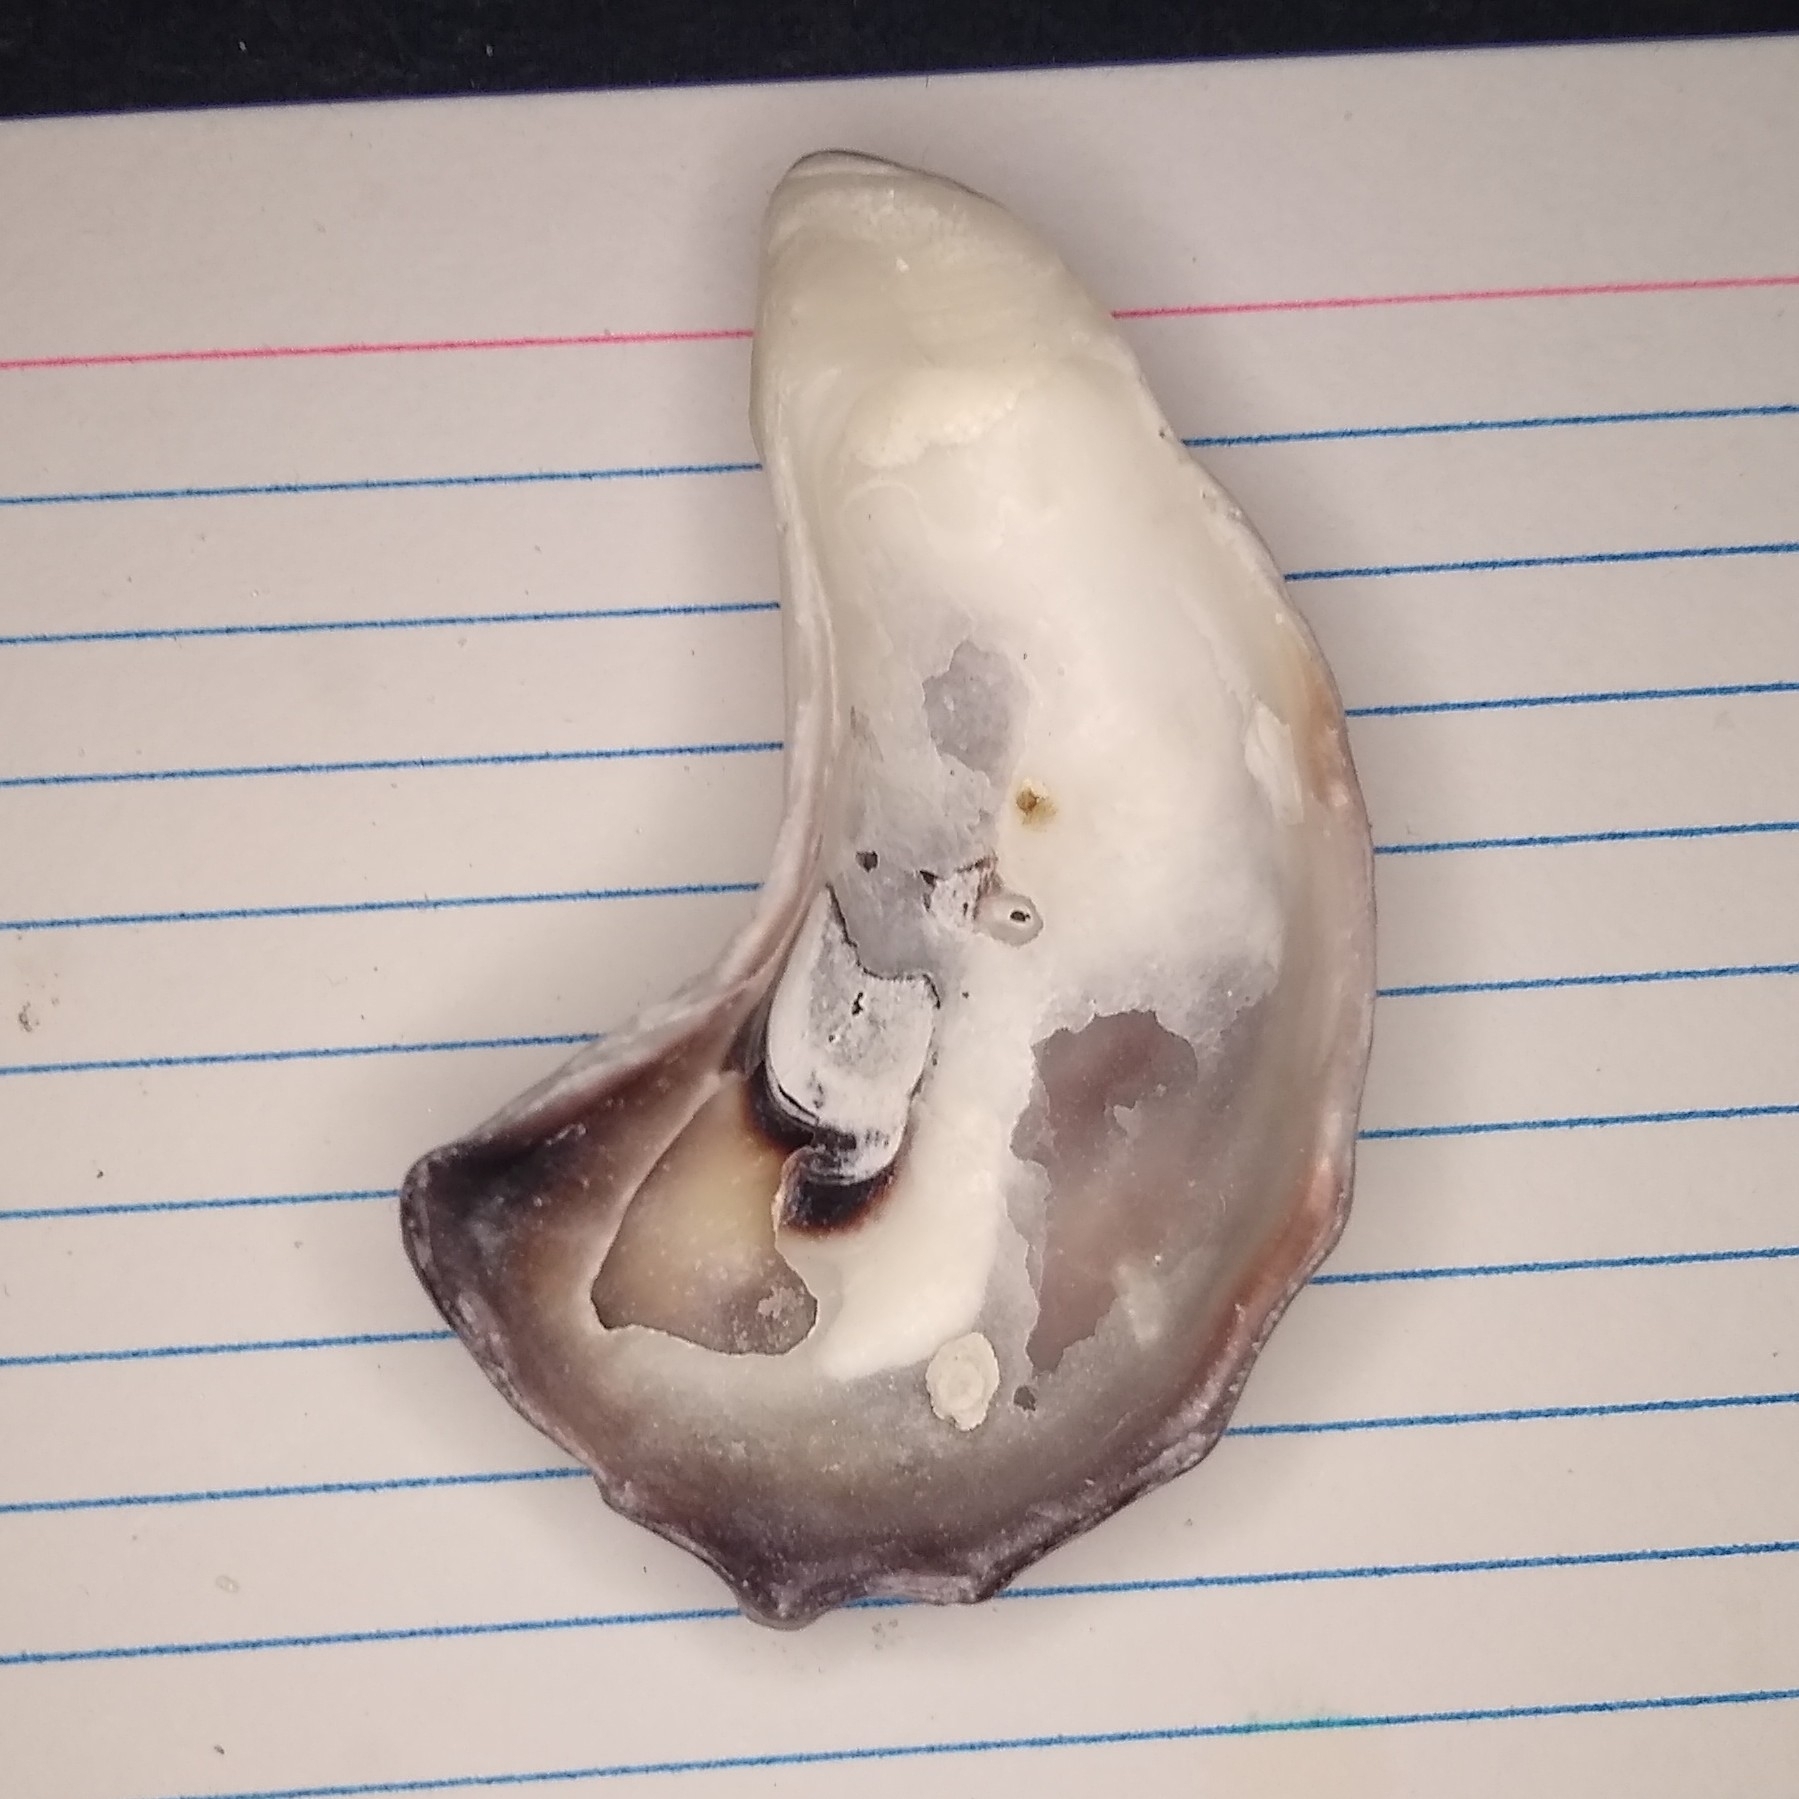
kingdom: Animalia
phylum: Mollusca
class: Bivalvia
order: Ostreida
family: Ostreidae
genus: Crassostrea
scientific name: Crassostrea virginica
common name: American oyster
